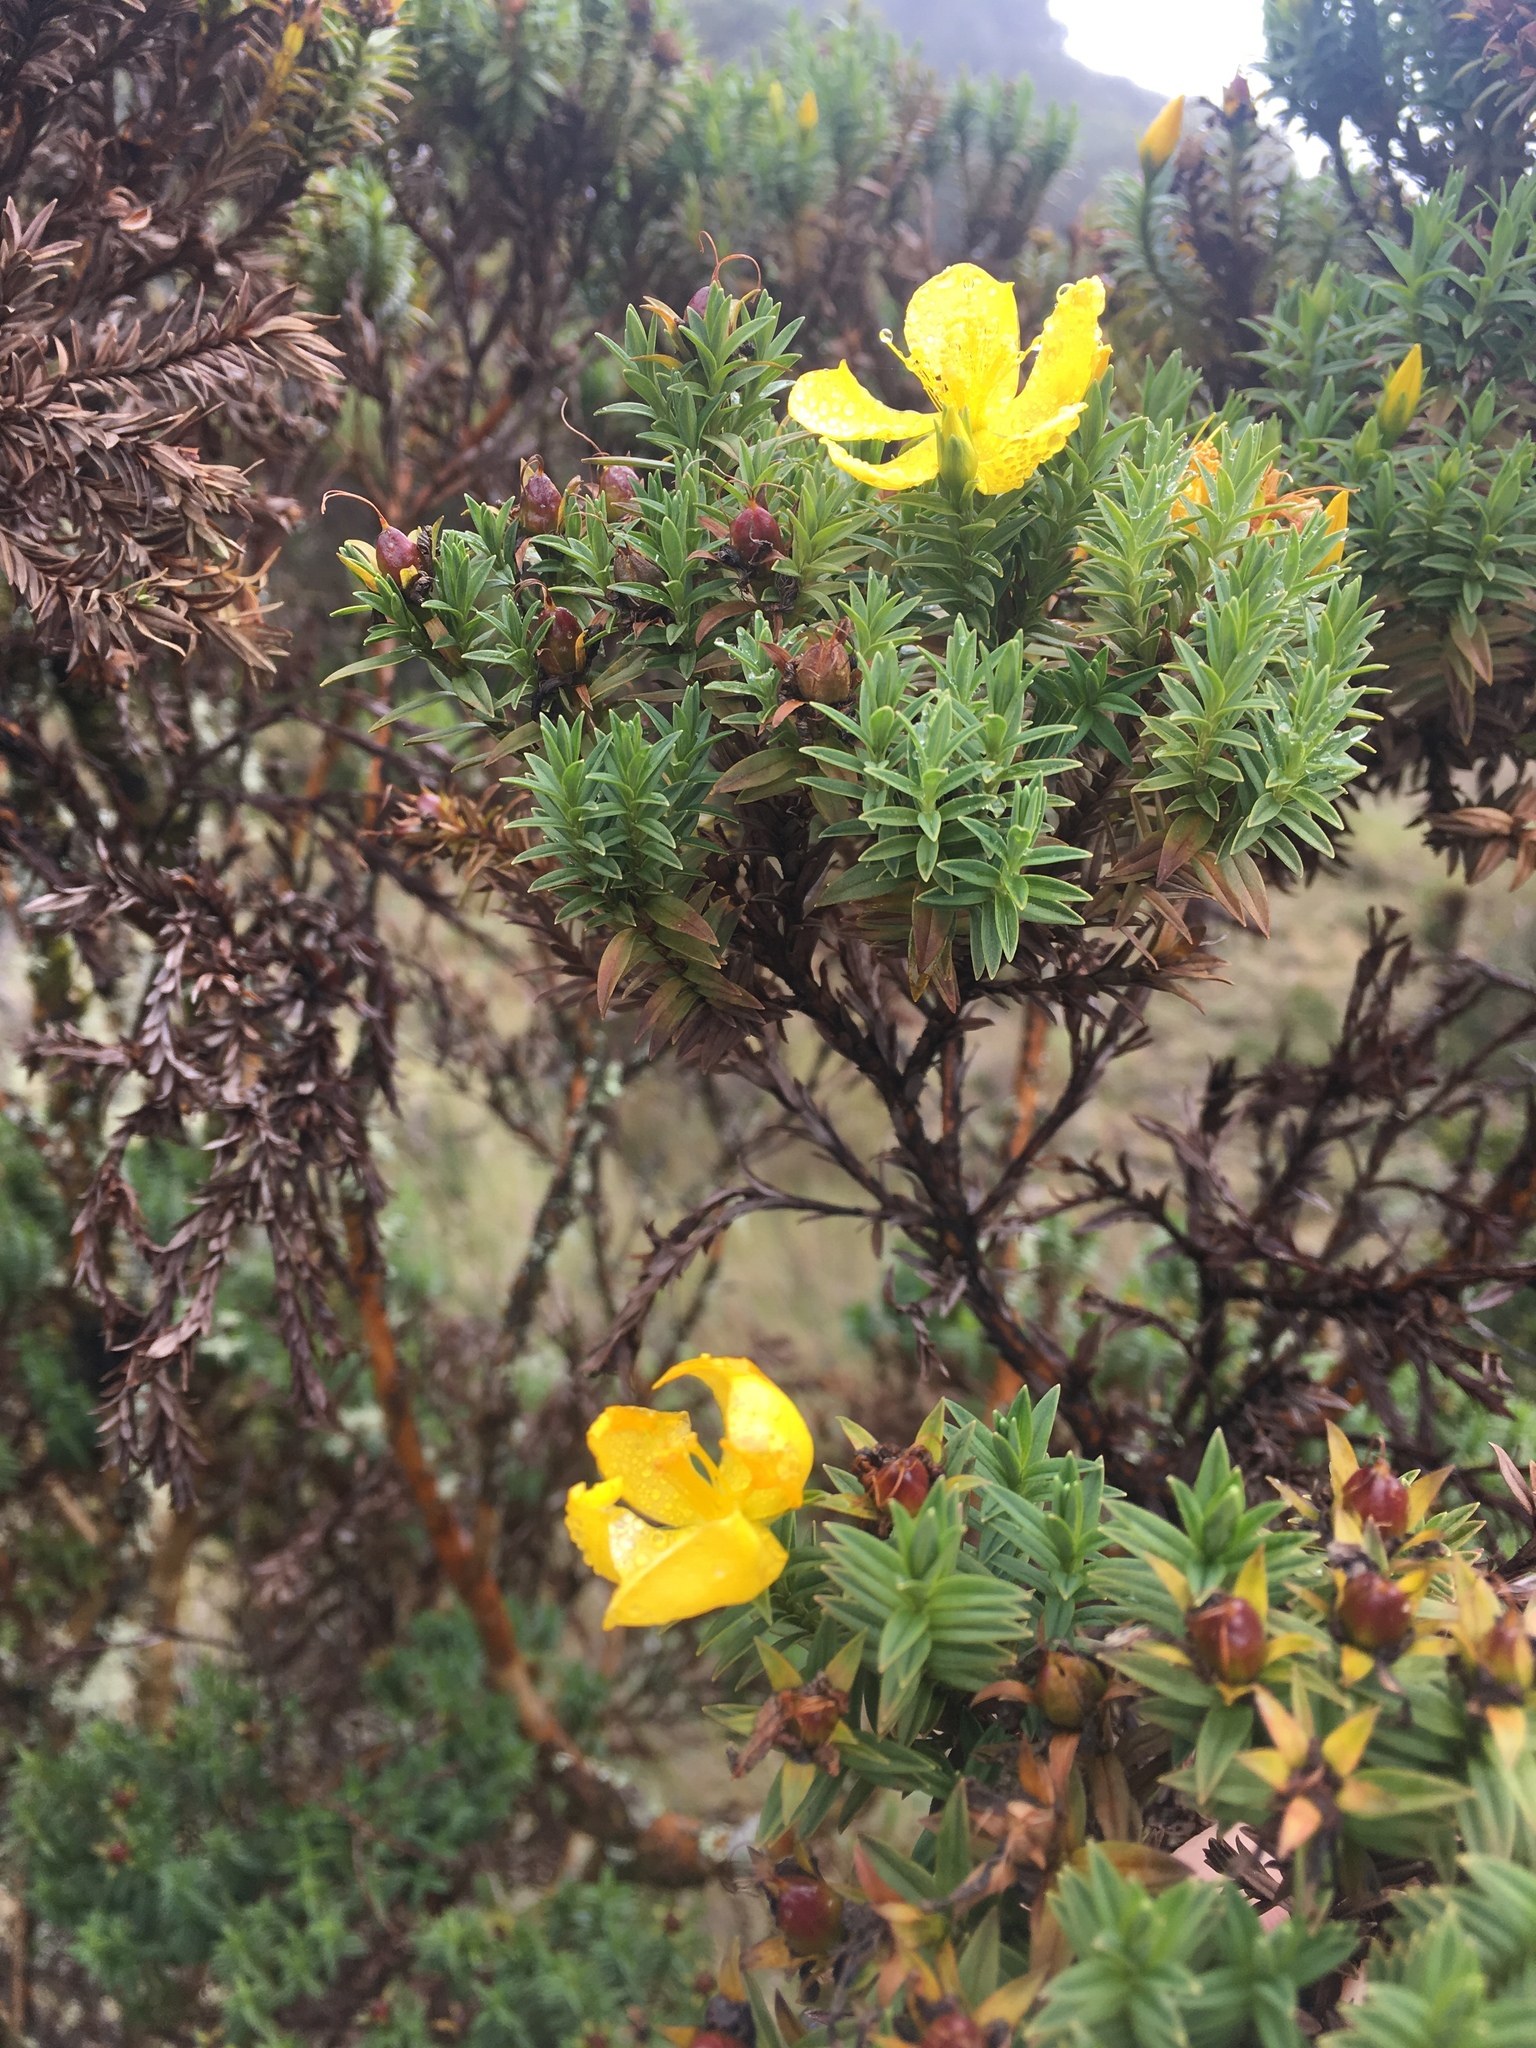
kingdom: Plantae
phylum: Tracheophyta
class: Magnoliopsida
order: Malpighiales
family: Hypericaceae
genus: Hypericum
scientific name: Hypericum irazuense
